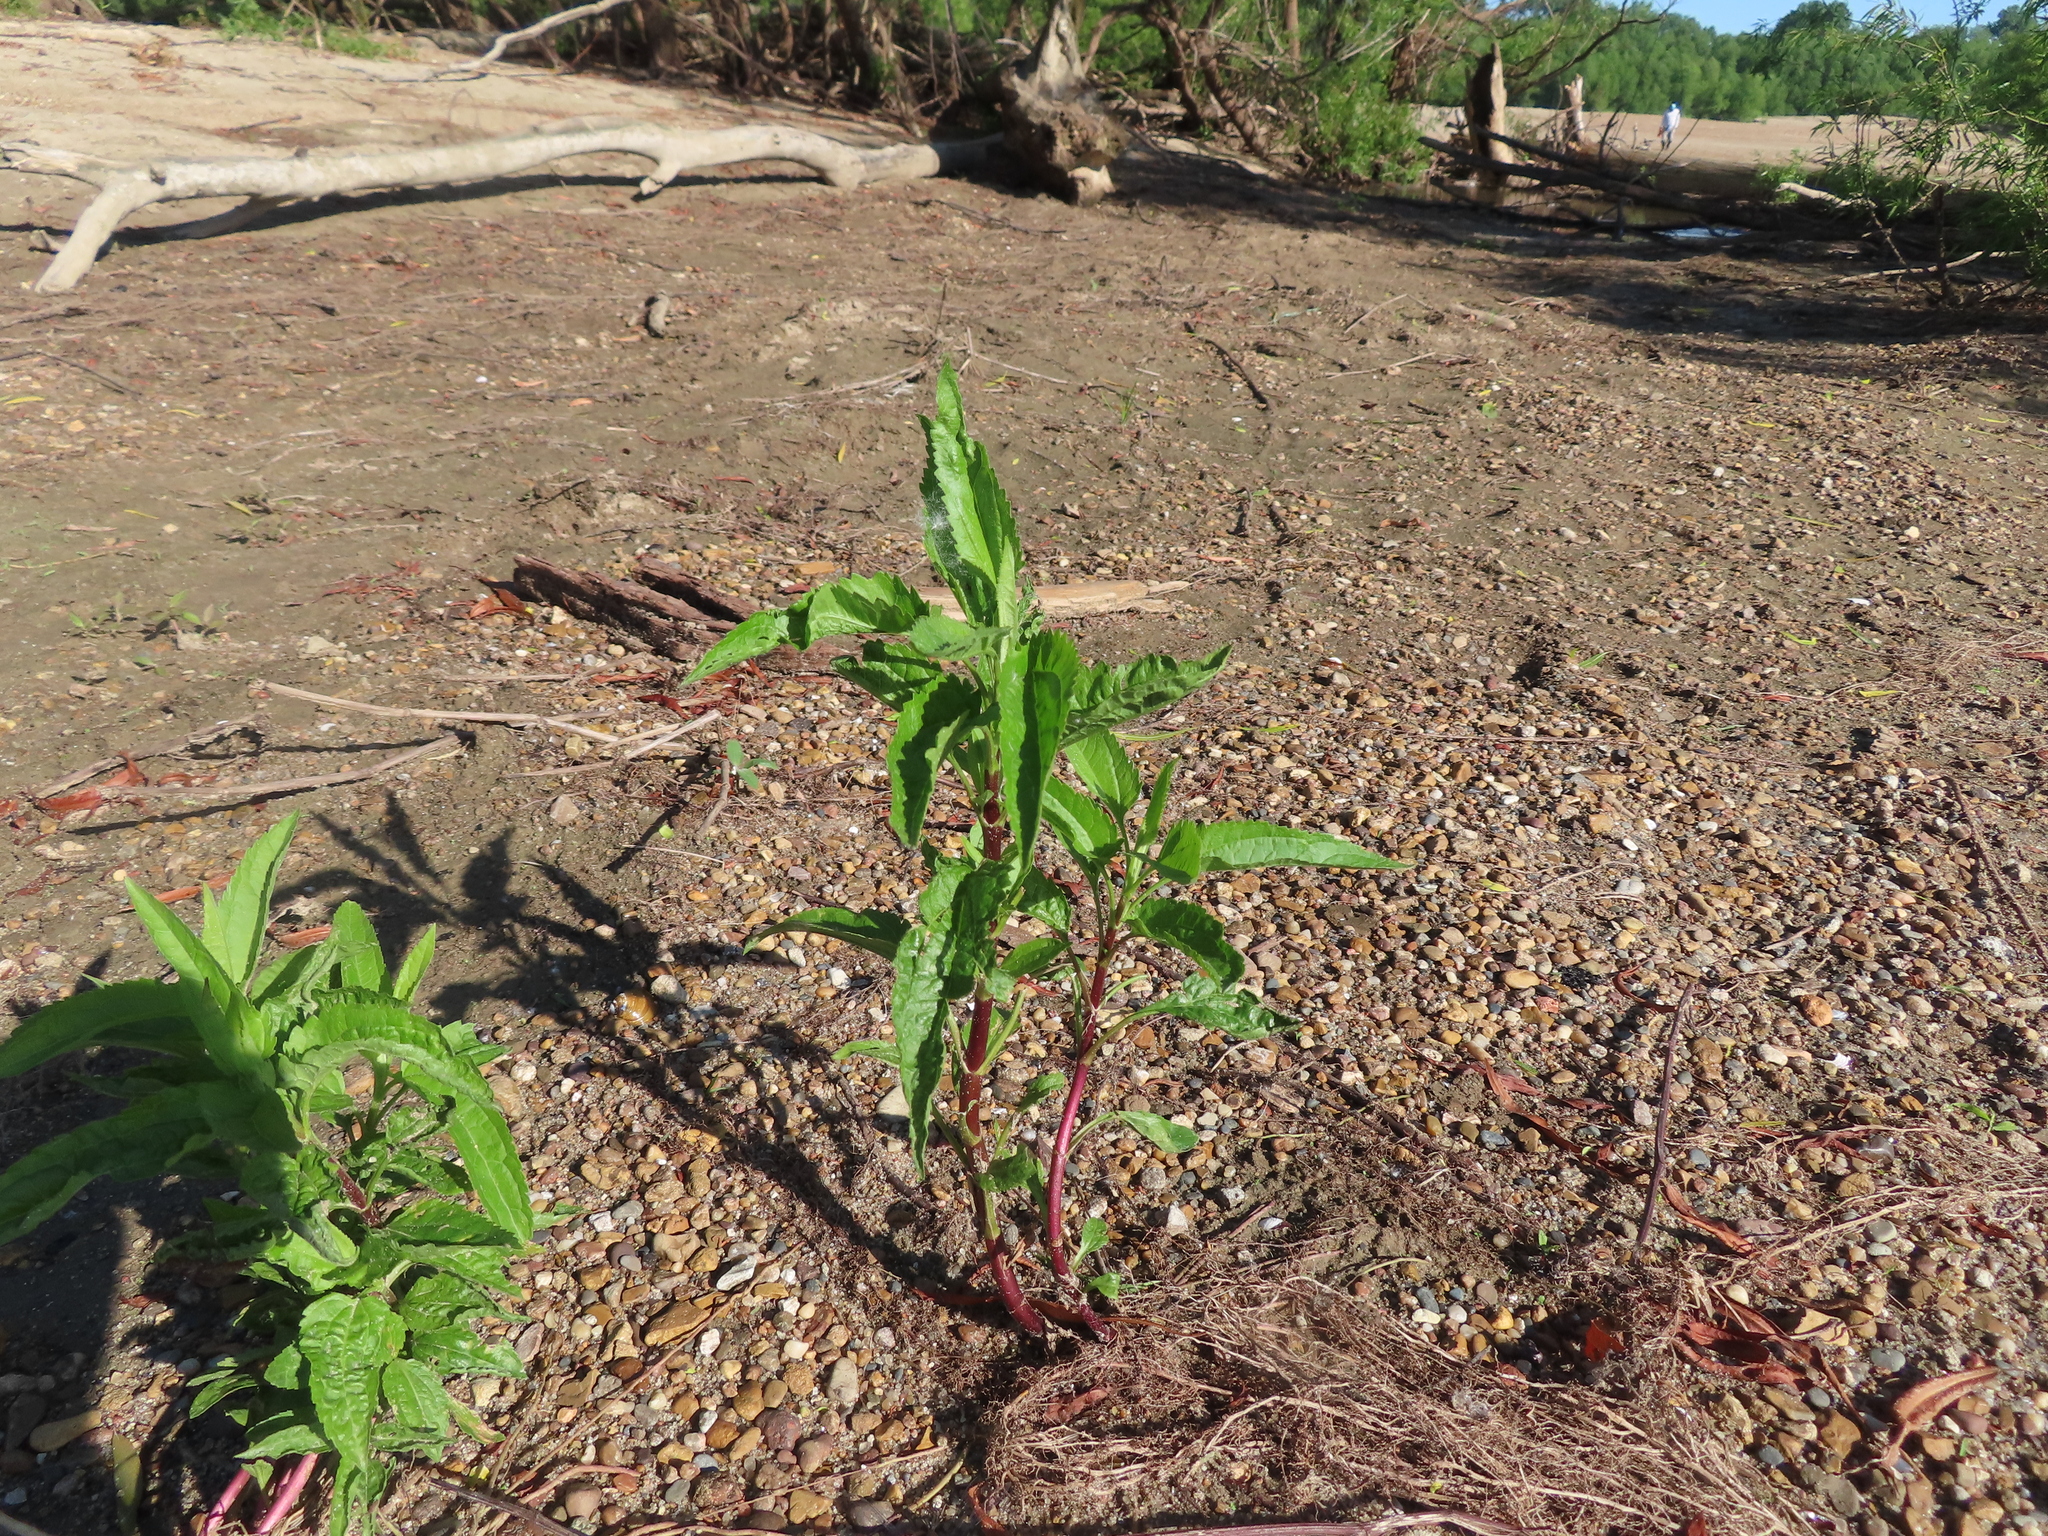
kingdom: Plantae
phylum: Tracheophyta
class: Magnoliopsida
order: Asterales
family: Asteraceae
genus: Eupatorium
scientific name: Eupatorium serotinum
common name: Late boneset
